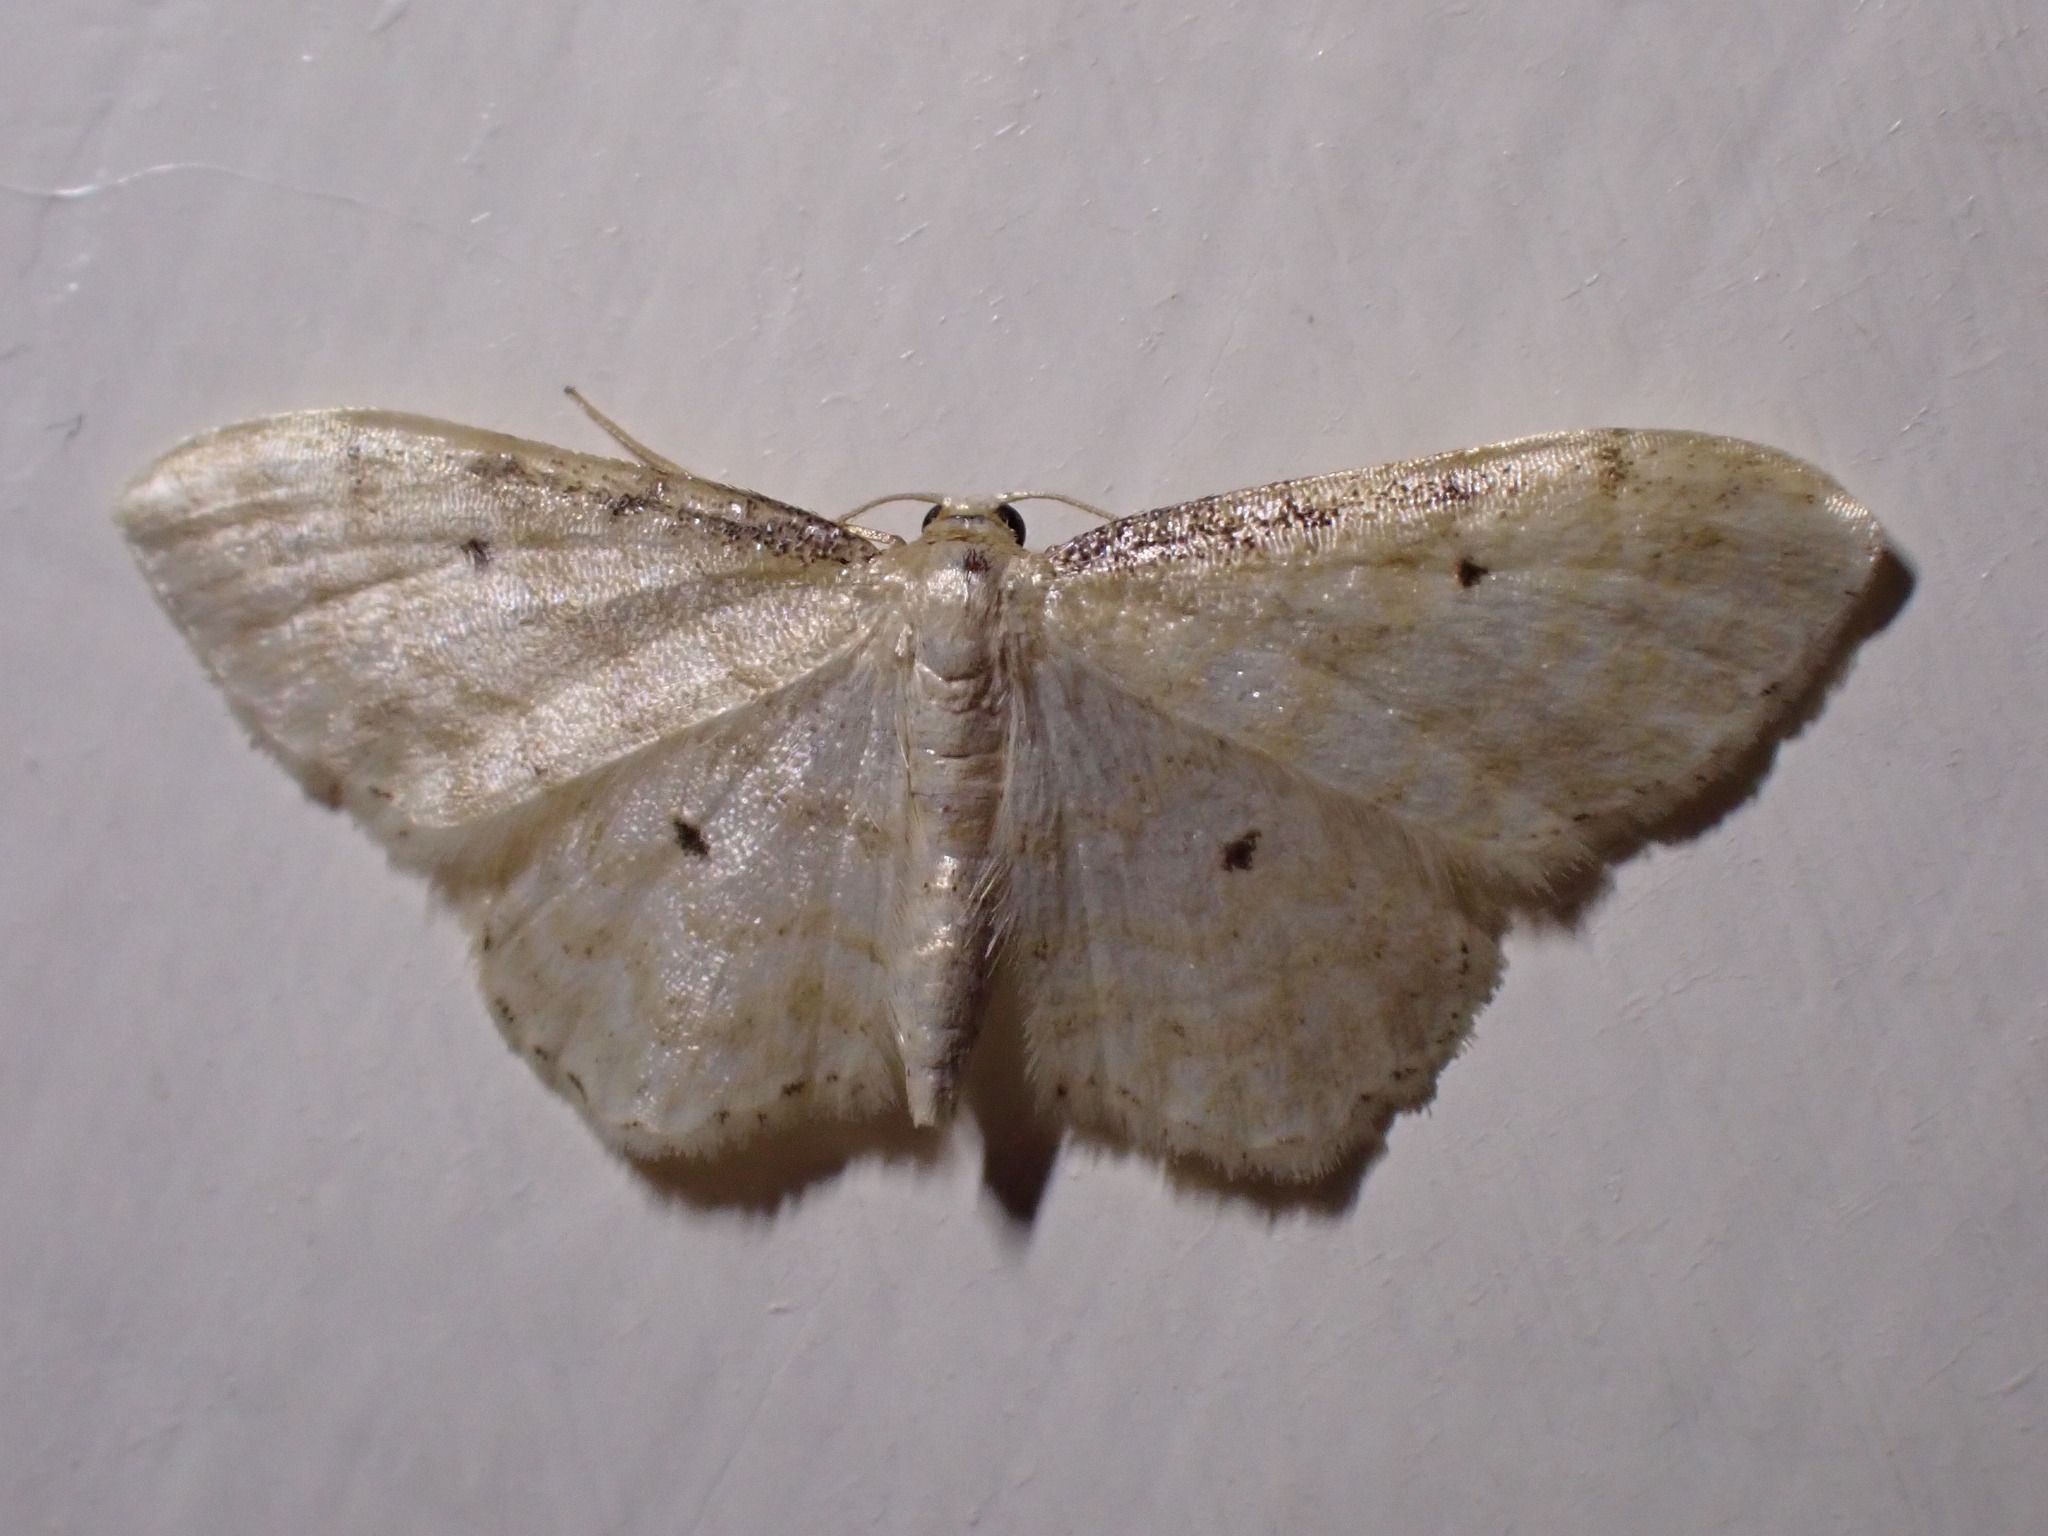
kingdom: Animalia
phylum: Arthropoda
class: Insecta
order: Lepidoptera
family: Geometridae
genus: Idaea
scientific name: Idaea fuscovenosa
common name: Dwarf cream wave
